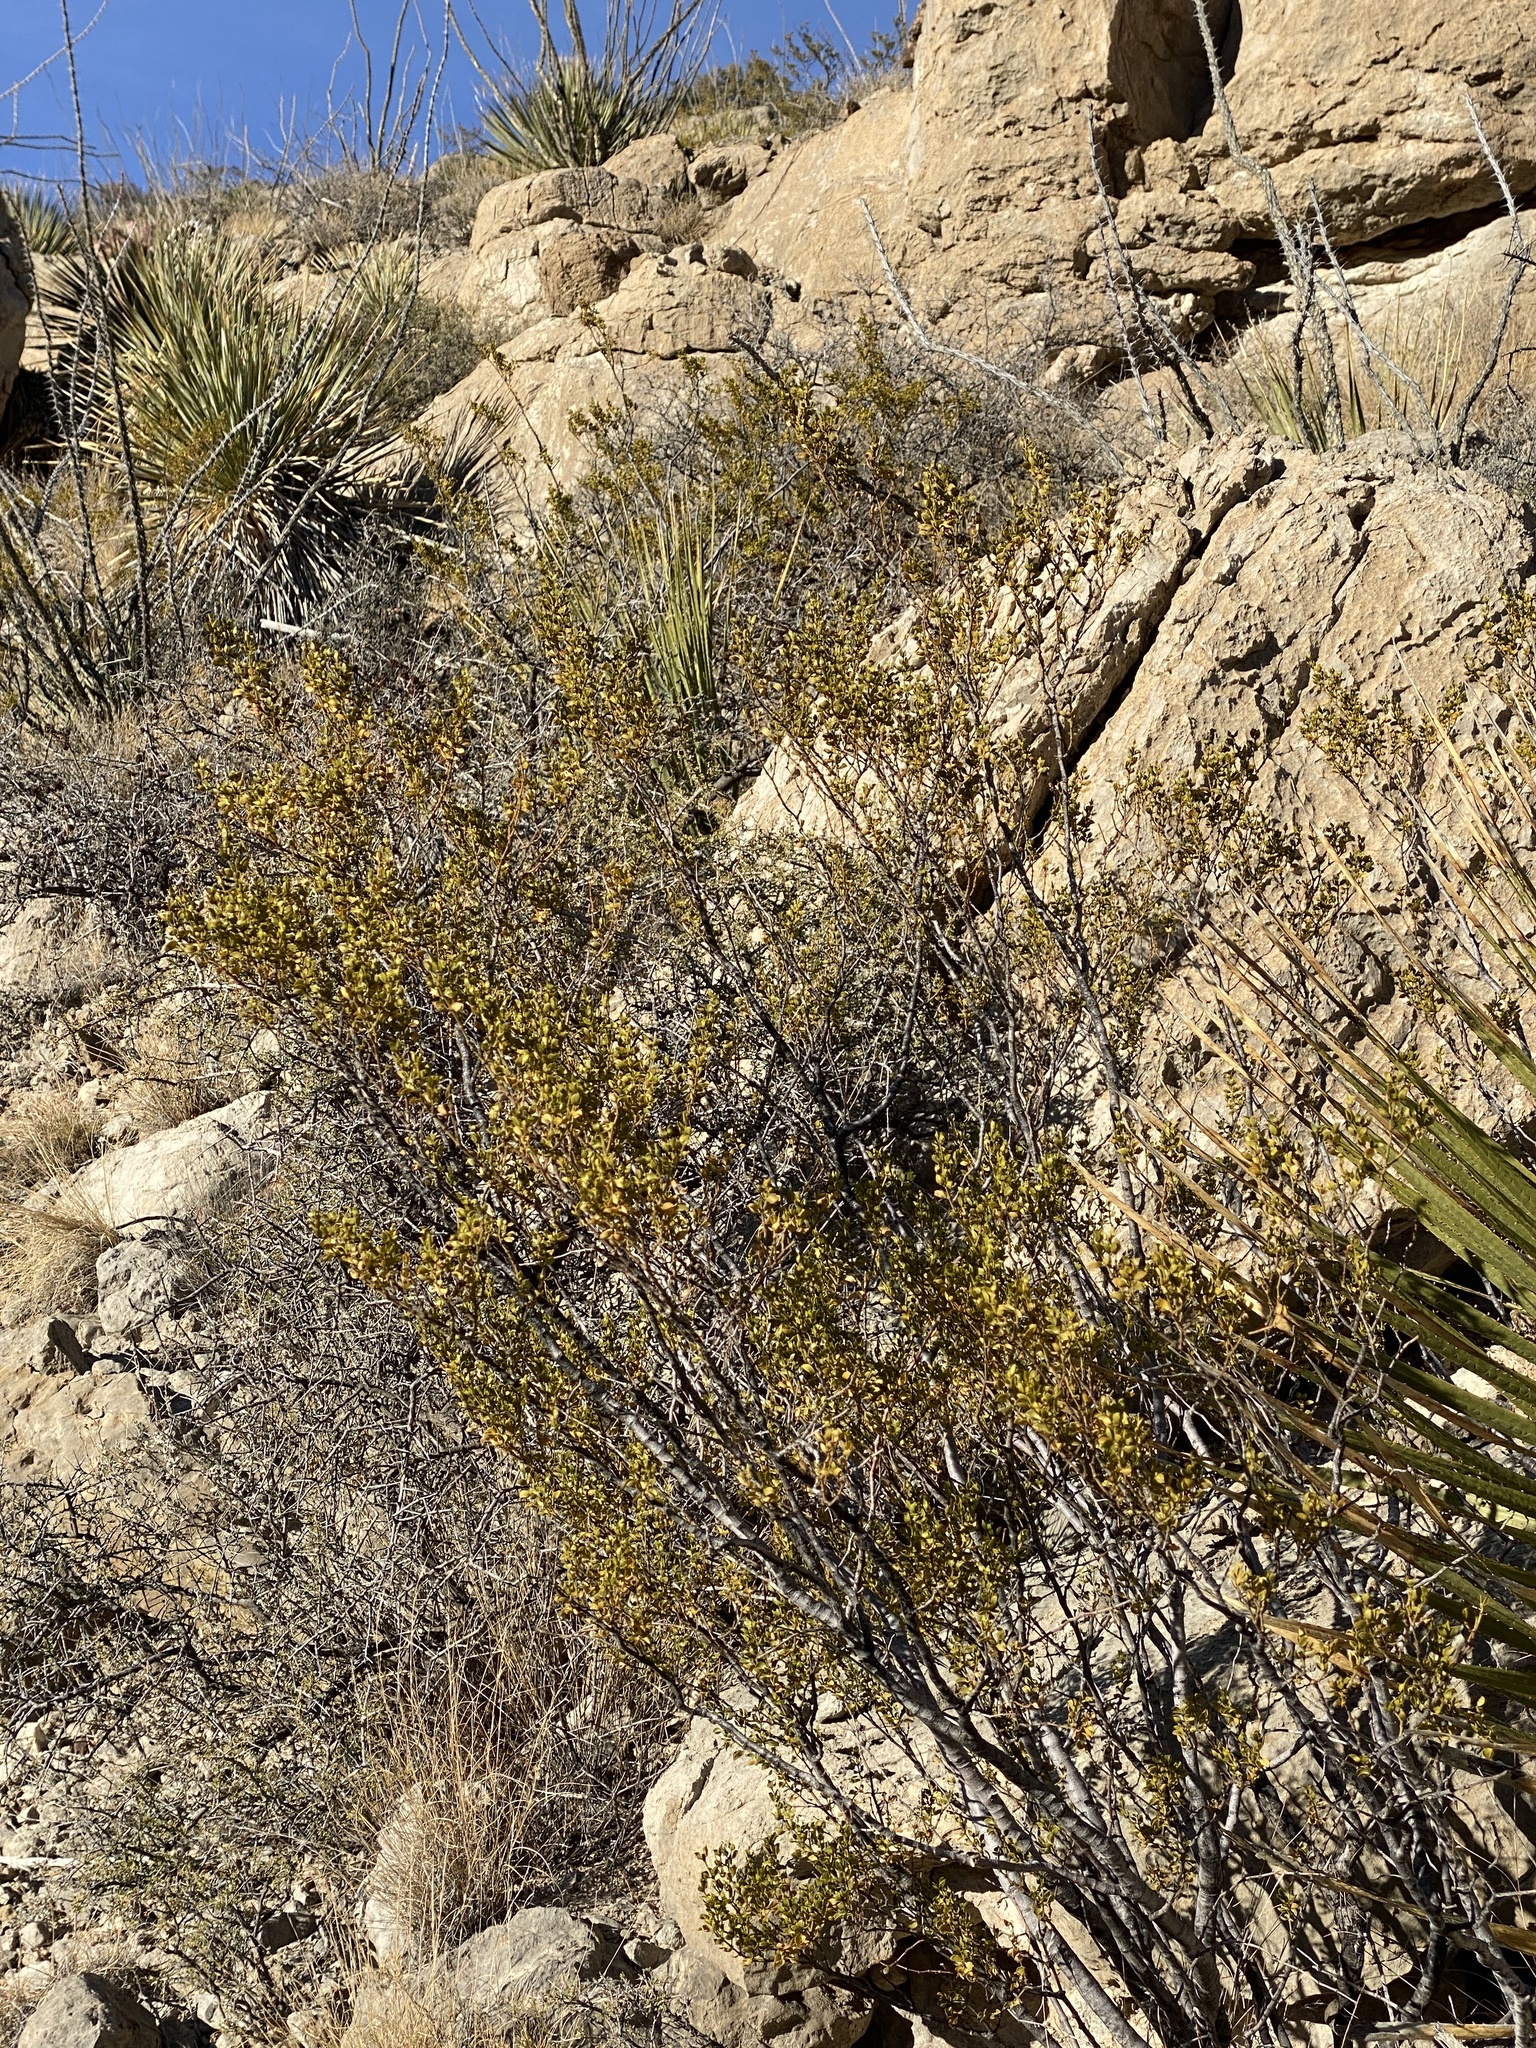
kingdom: Plantae
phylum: Tracheophyta
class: Magnoliopsida
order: Zygophyllales
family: Zygophyllaceae
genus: Larrea
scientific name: Larrea tridentata
